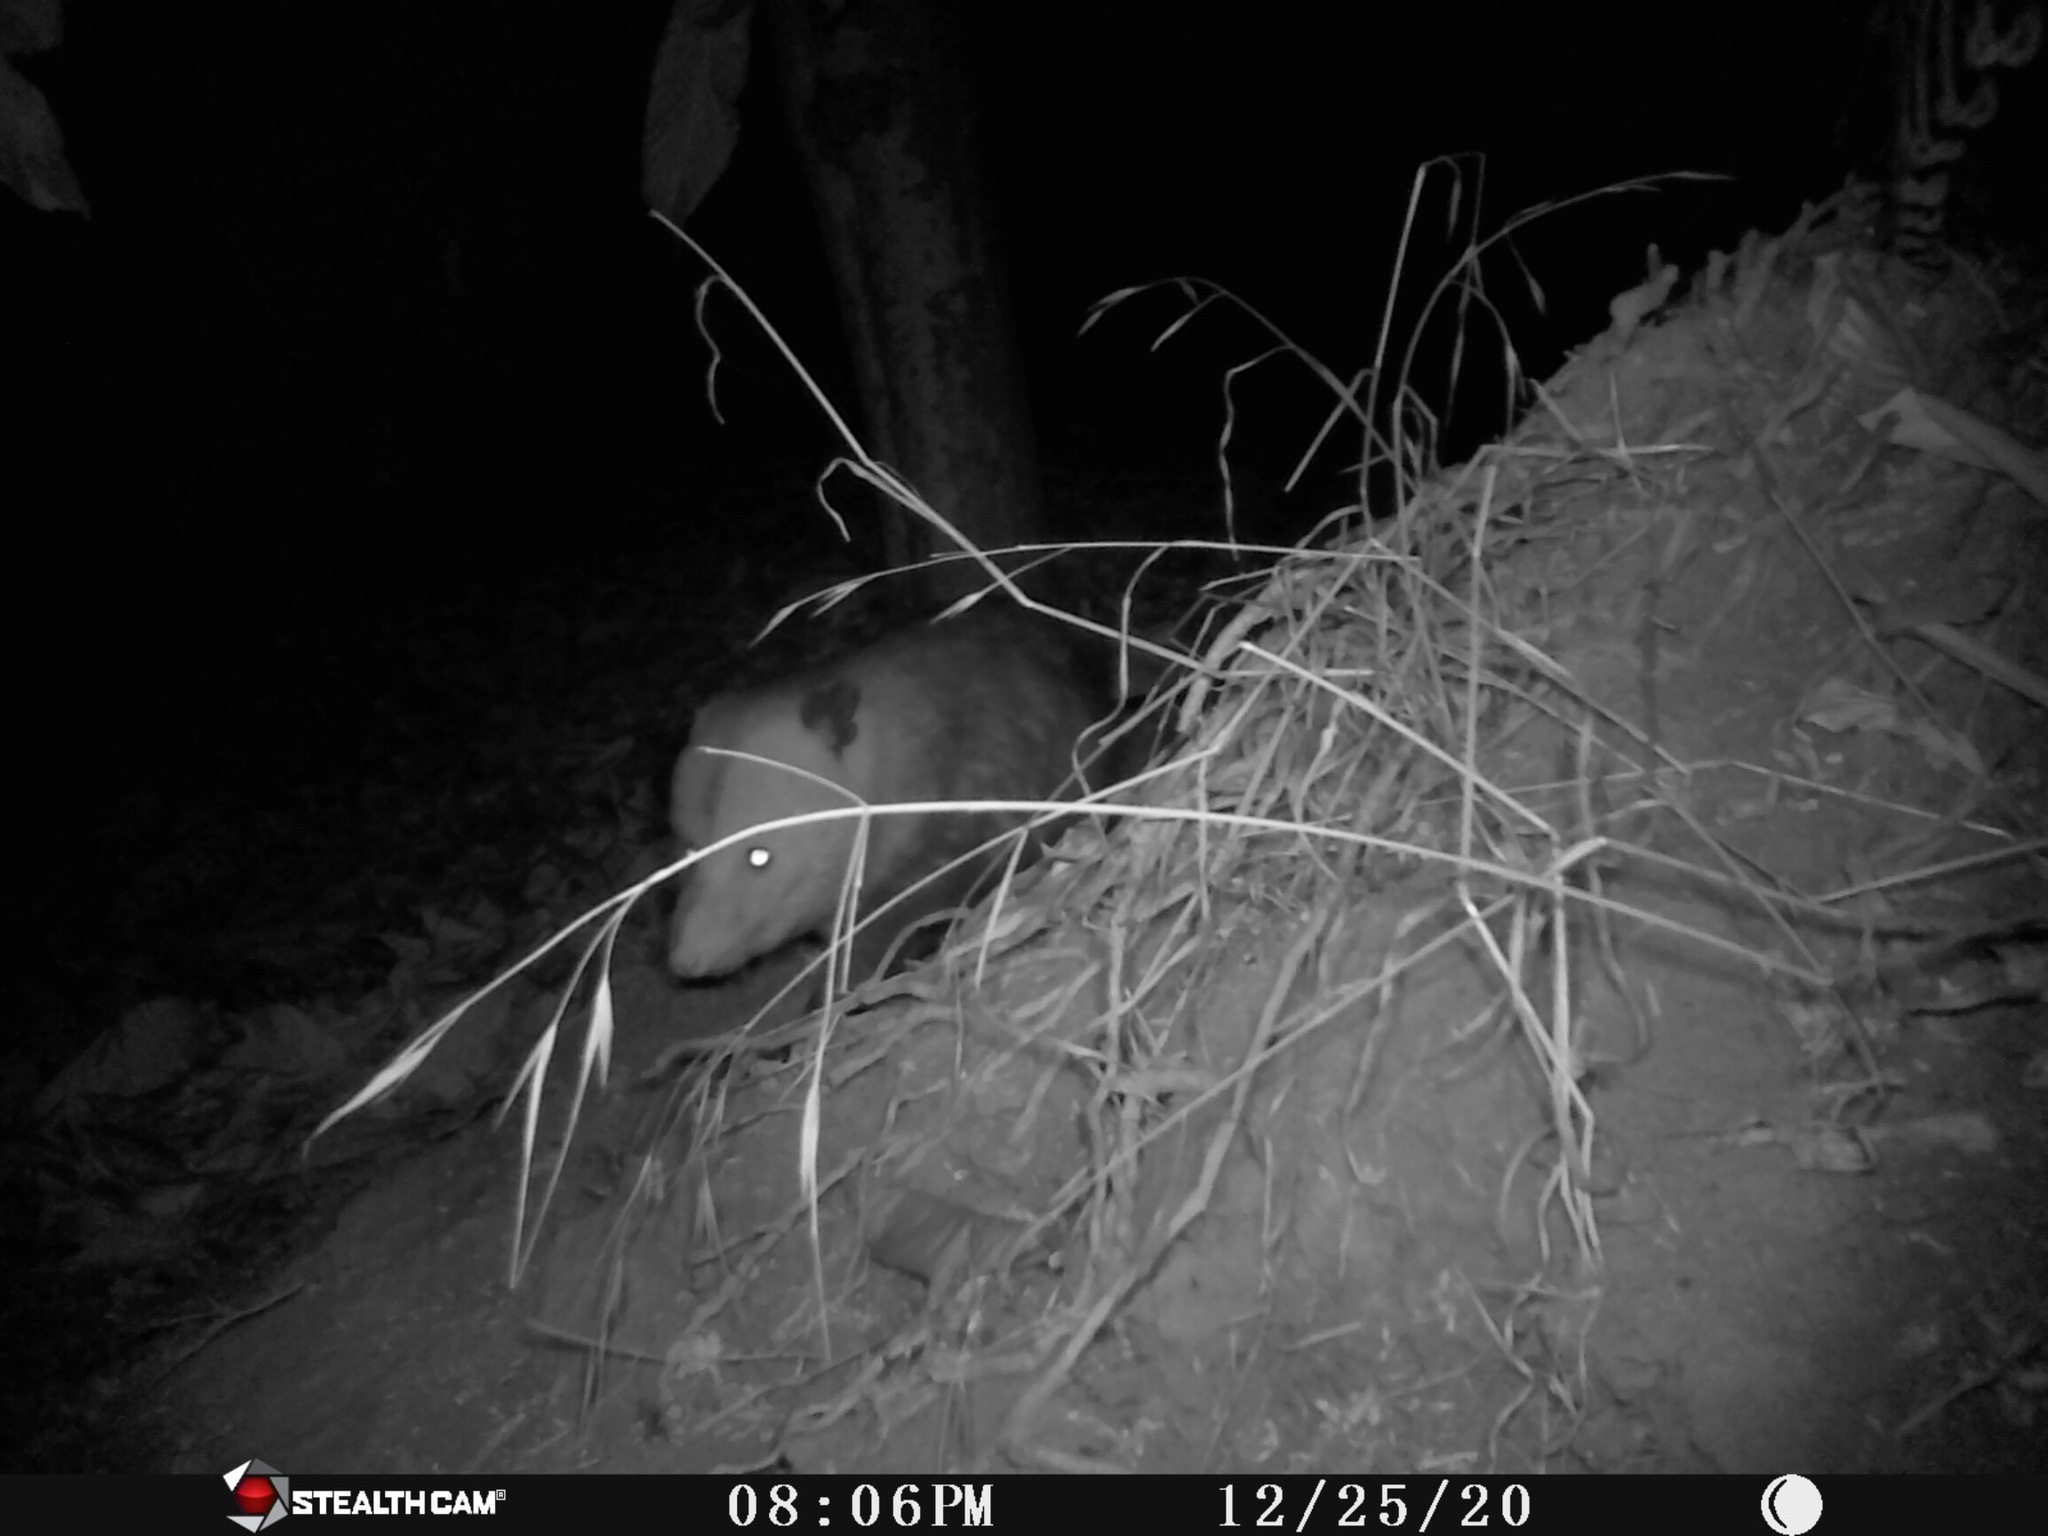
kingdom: Animalia
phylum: Chordata
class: Mammalia
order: Didelphimorphia
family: Didelphidae
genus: Didelphis
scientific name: Didelphis virginiana
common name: Virginia opossum
